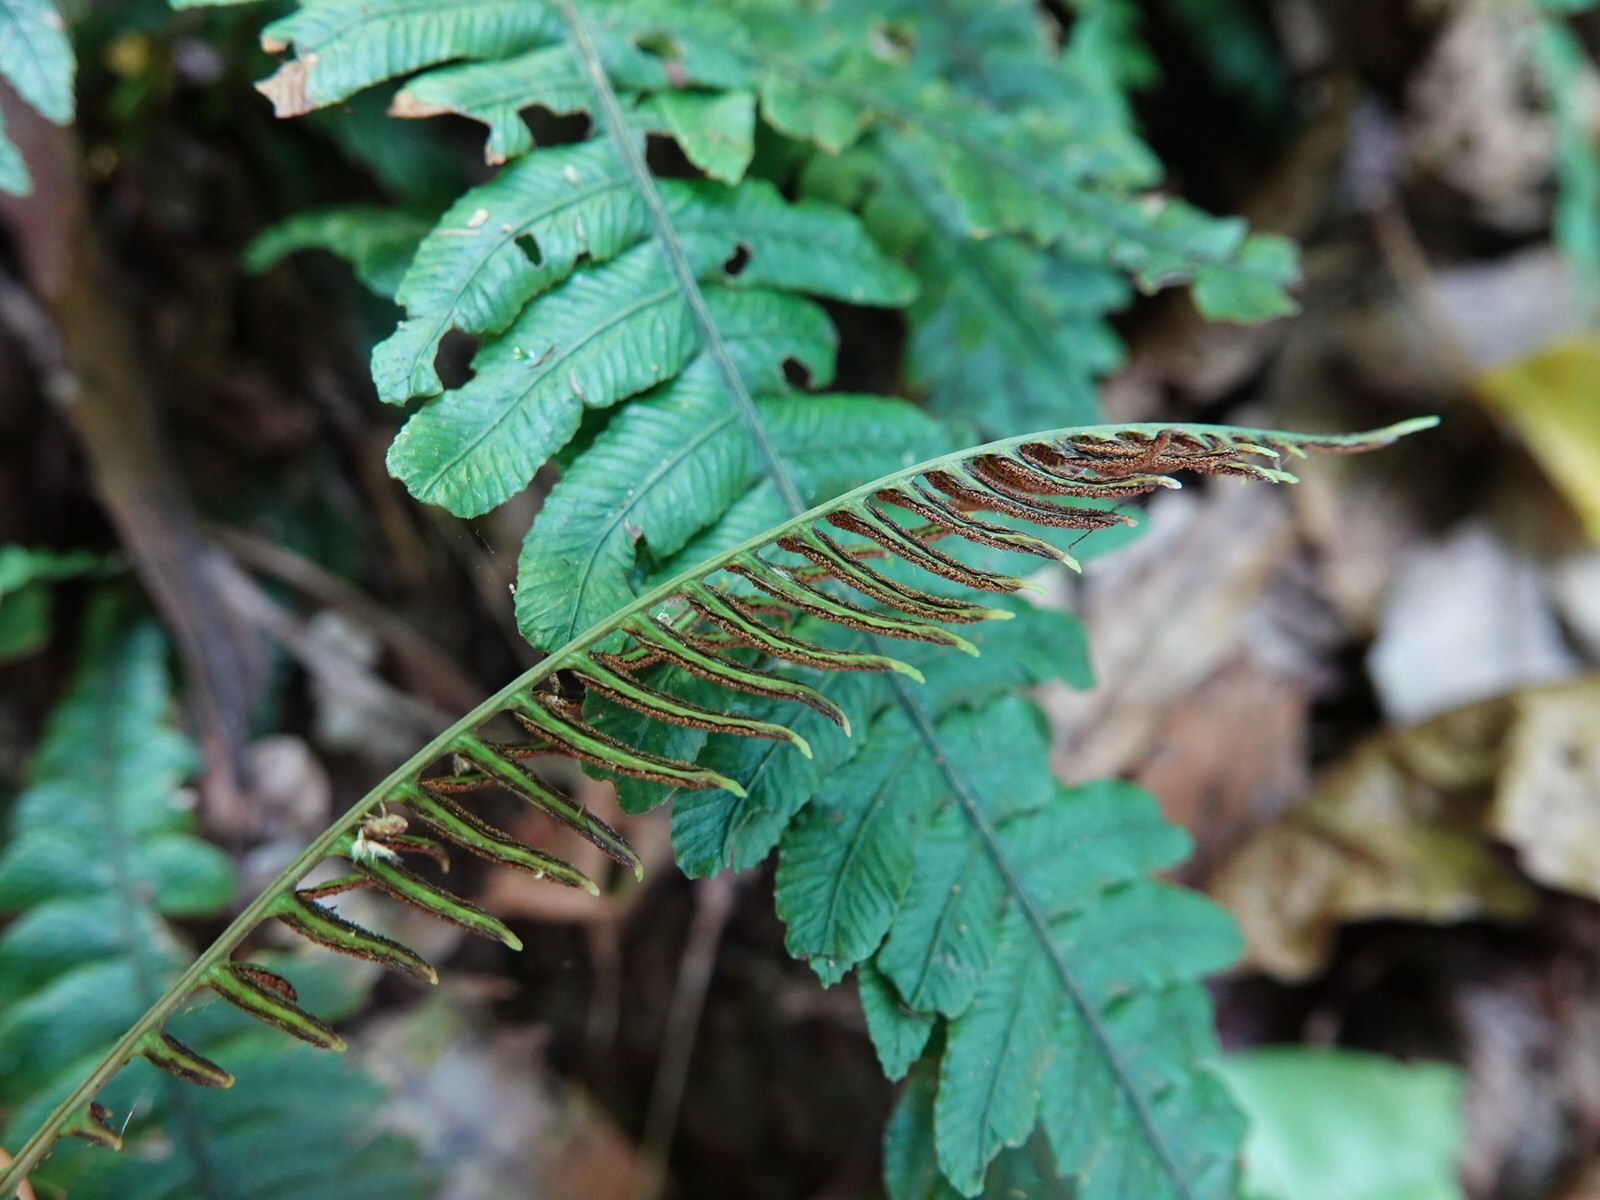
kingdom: Plantae
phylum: Tracheophyta
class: Polypodiopsida
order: Polypodiales
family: Blechnaceae
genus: Austroblechnum
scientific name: Austroblechnum lanceolatum
